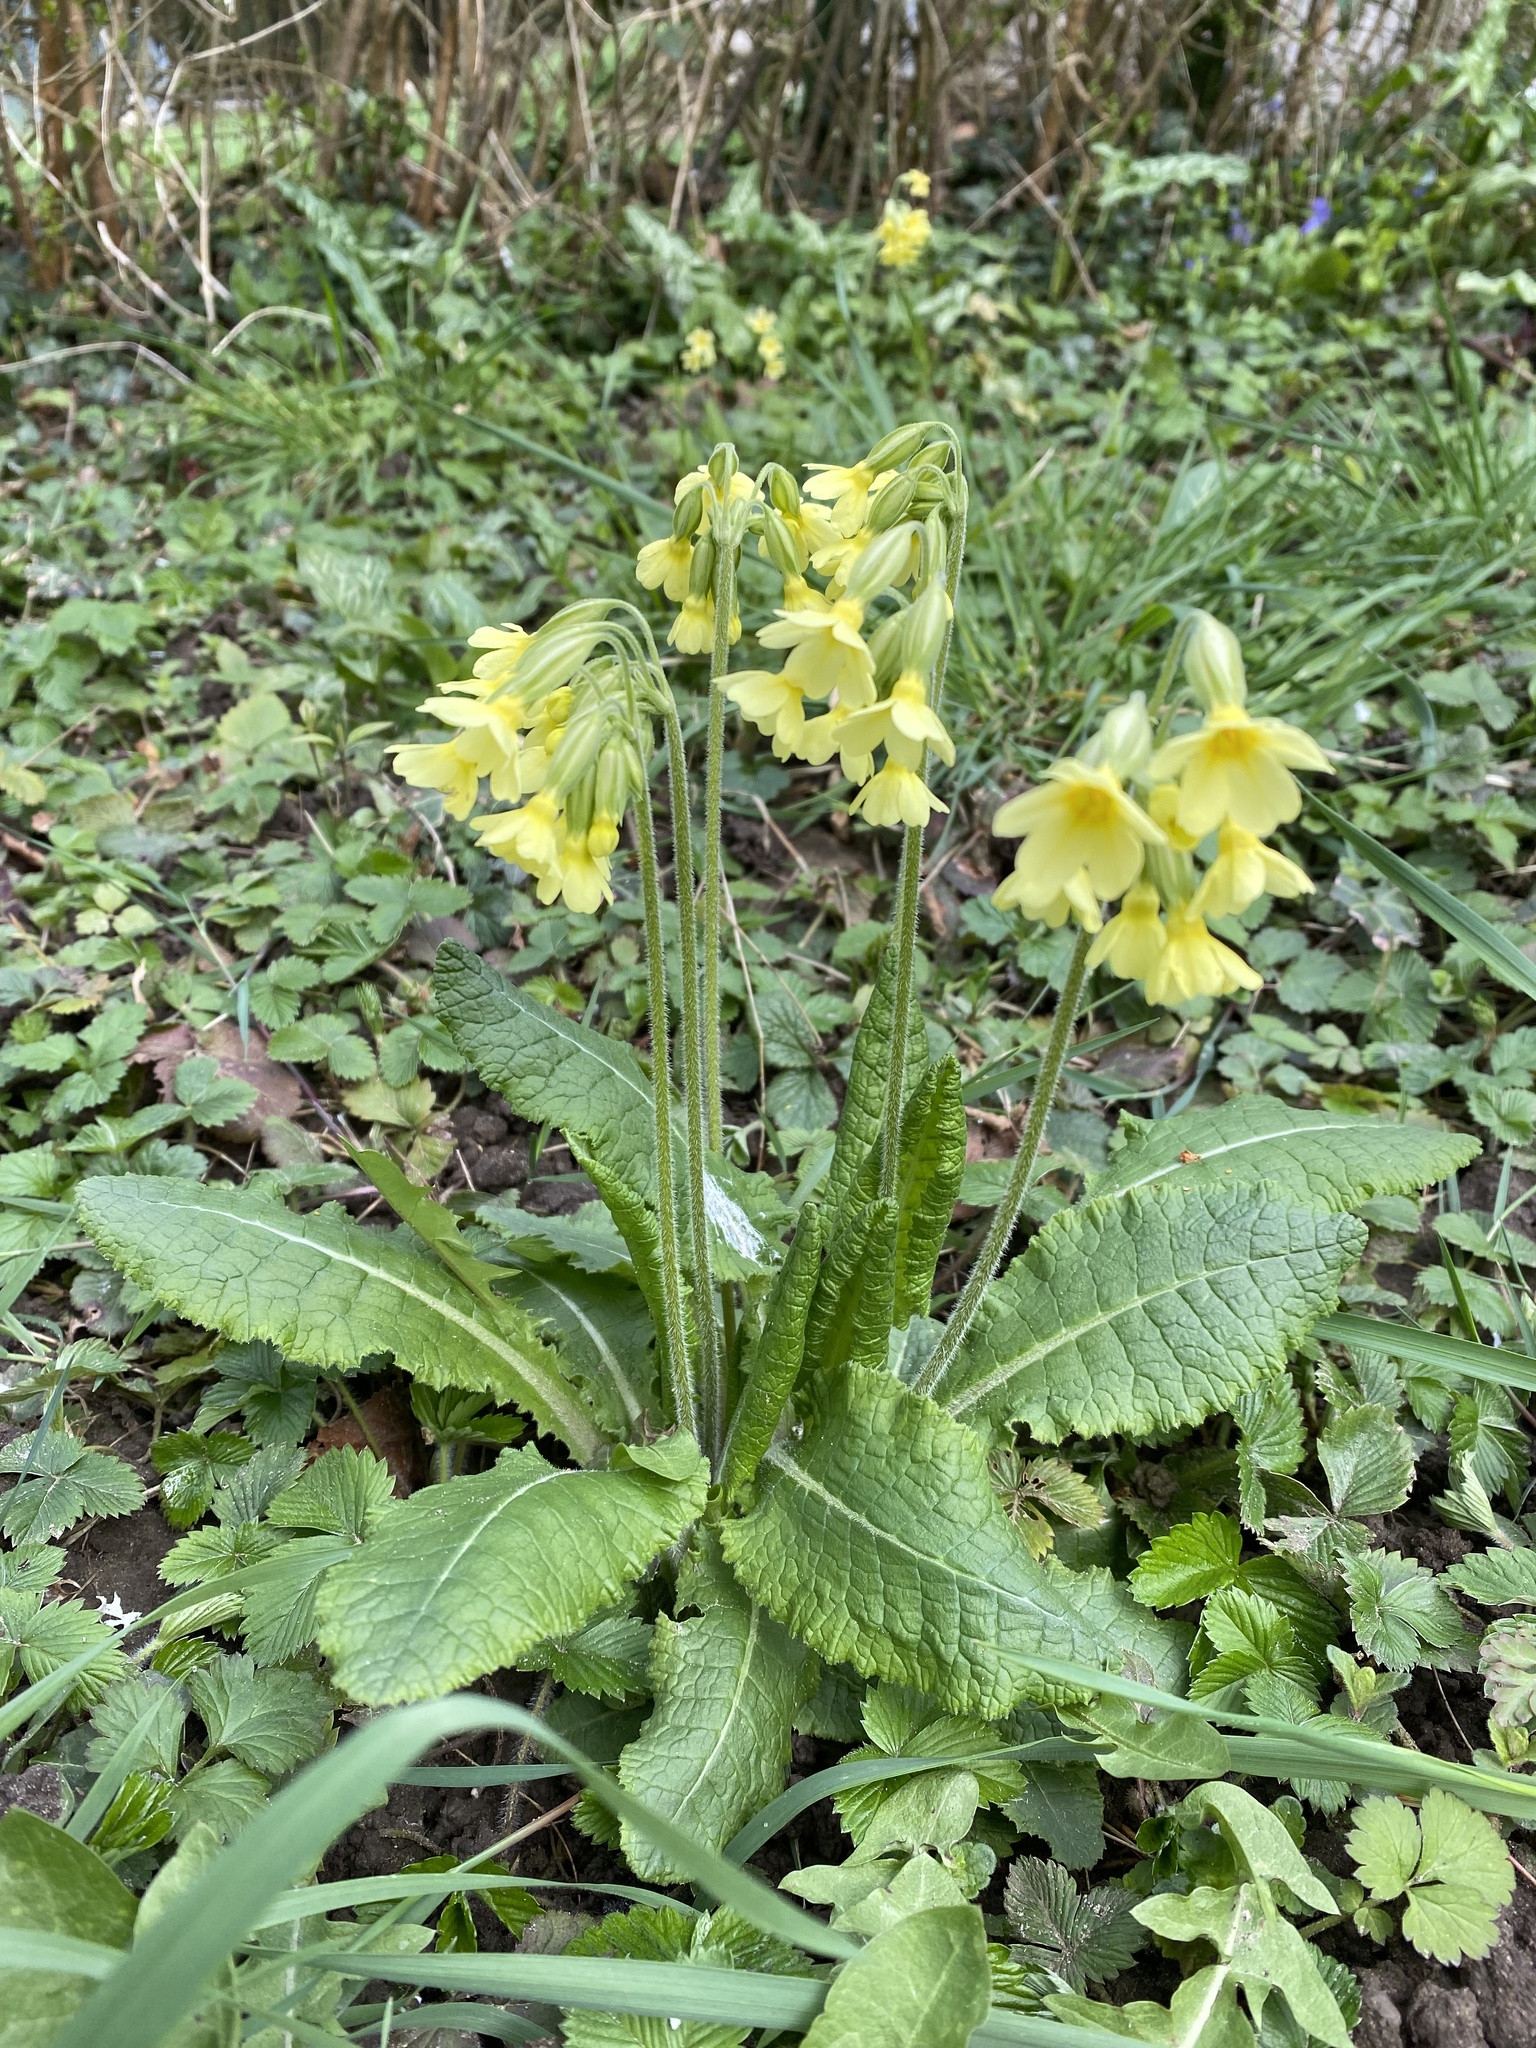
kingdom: Plantae
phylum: Tracheophyta
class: Magnoliopsida
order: Ericales
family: Primulaceae
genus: Primula
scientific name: Primula elatior
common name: Oxlip
